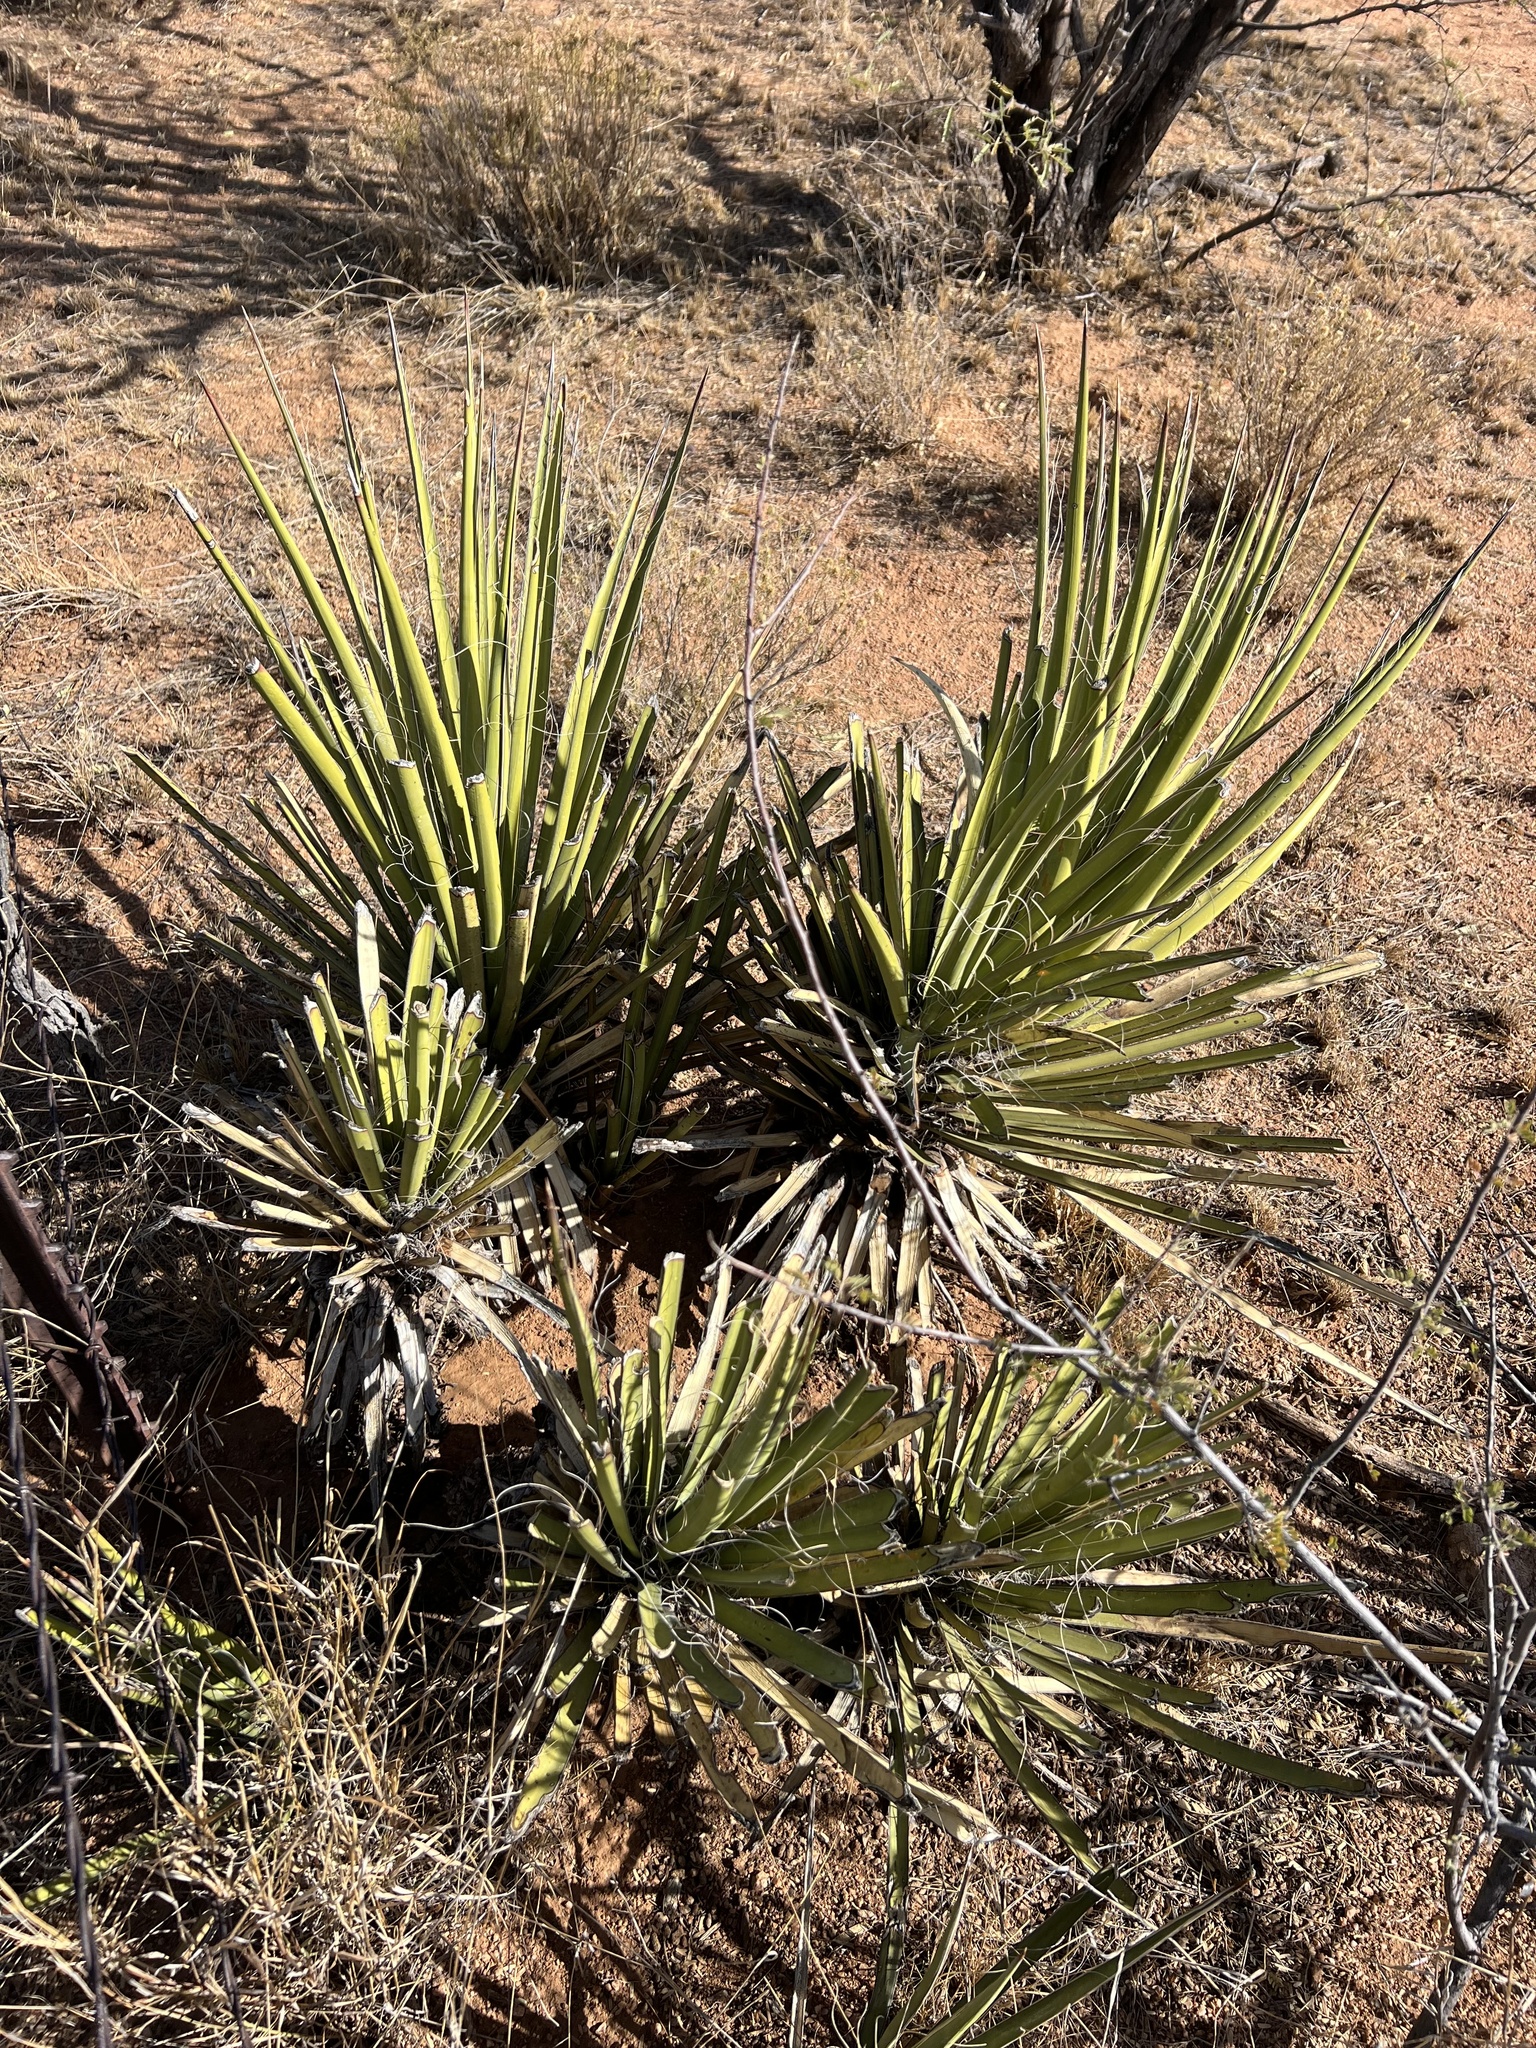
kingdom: Plantae
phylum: Tracheophyta
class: Liliopsida
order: Asparagales
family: Asparagaceae
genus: Yucca
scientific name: Yucca baccata
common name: Banana yucca
